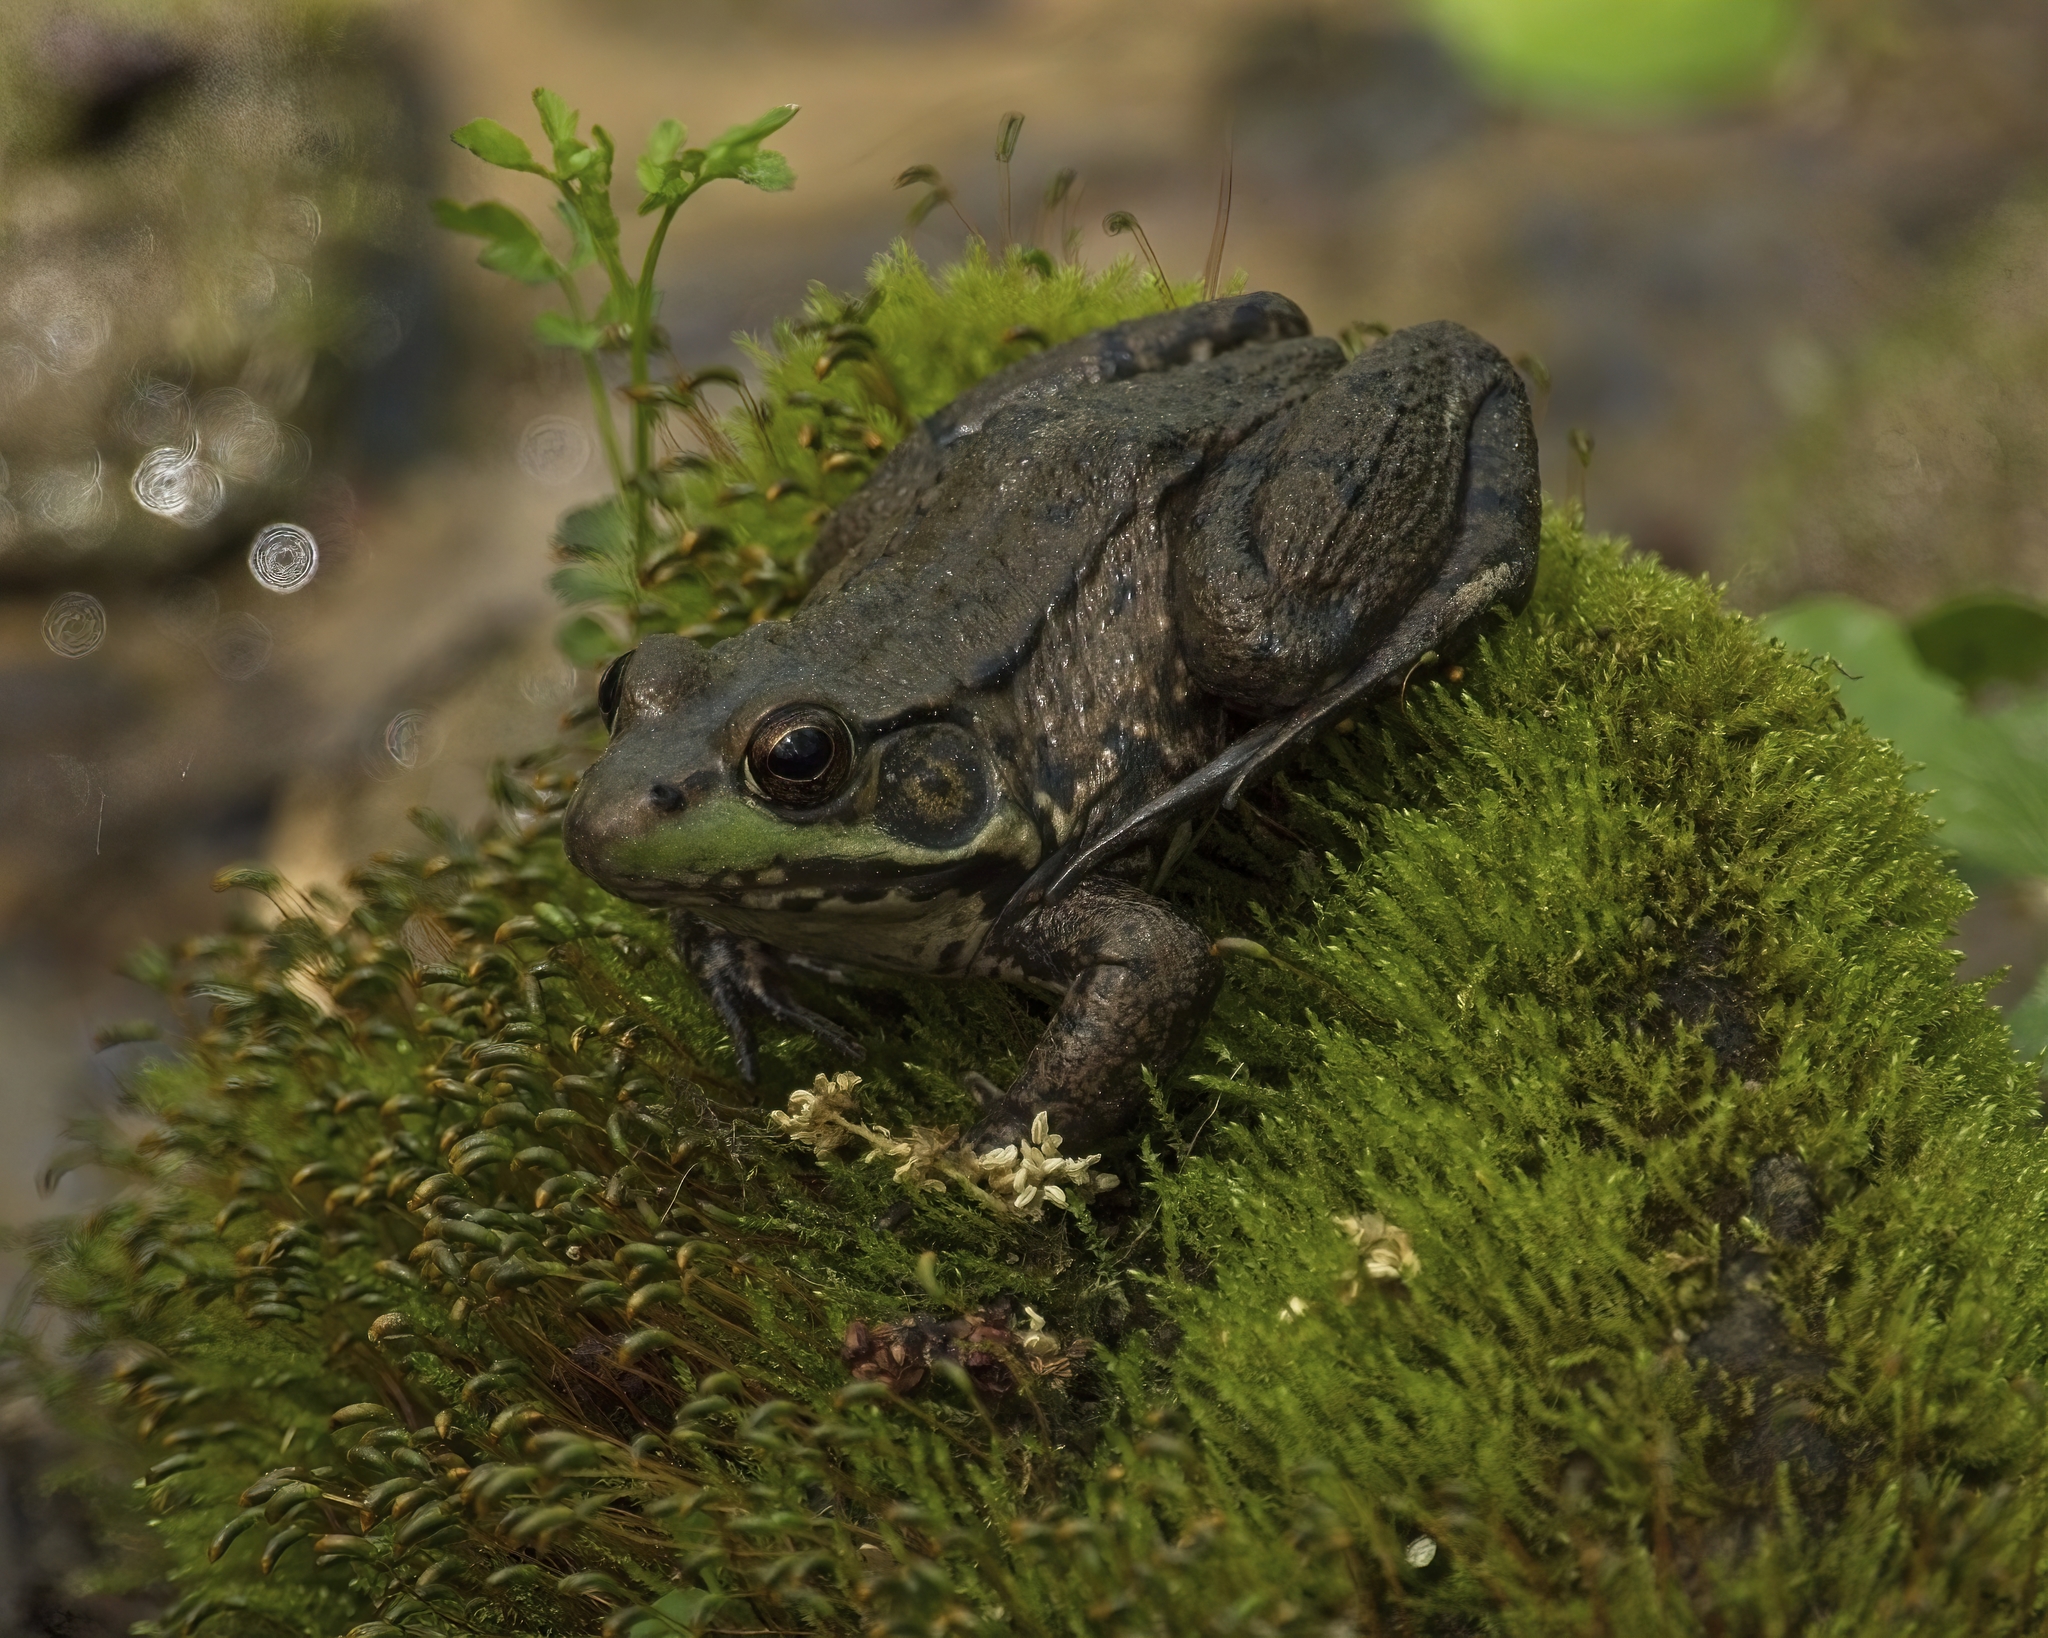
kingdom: Animalia
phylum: Chordata
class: Amphibia
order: Anura
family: Ranidae
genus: Lithobates
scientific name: Lithobates clamitans
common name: Green frog
